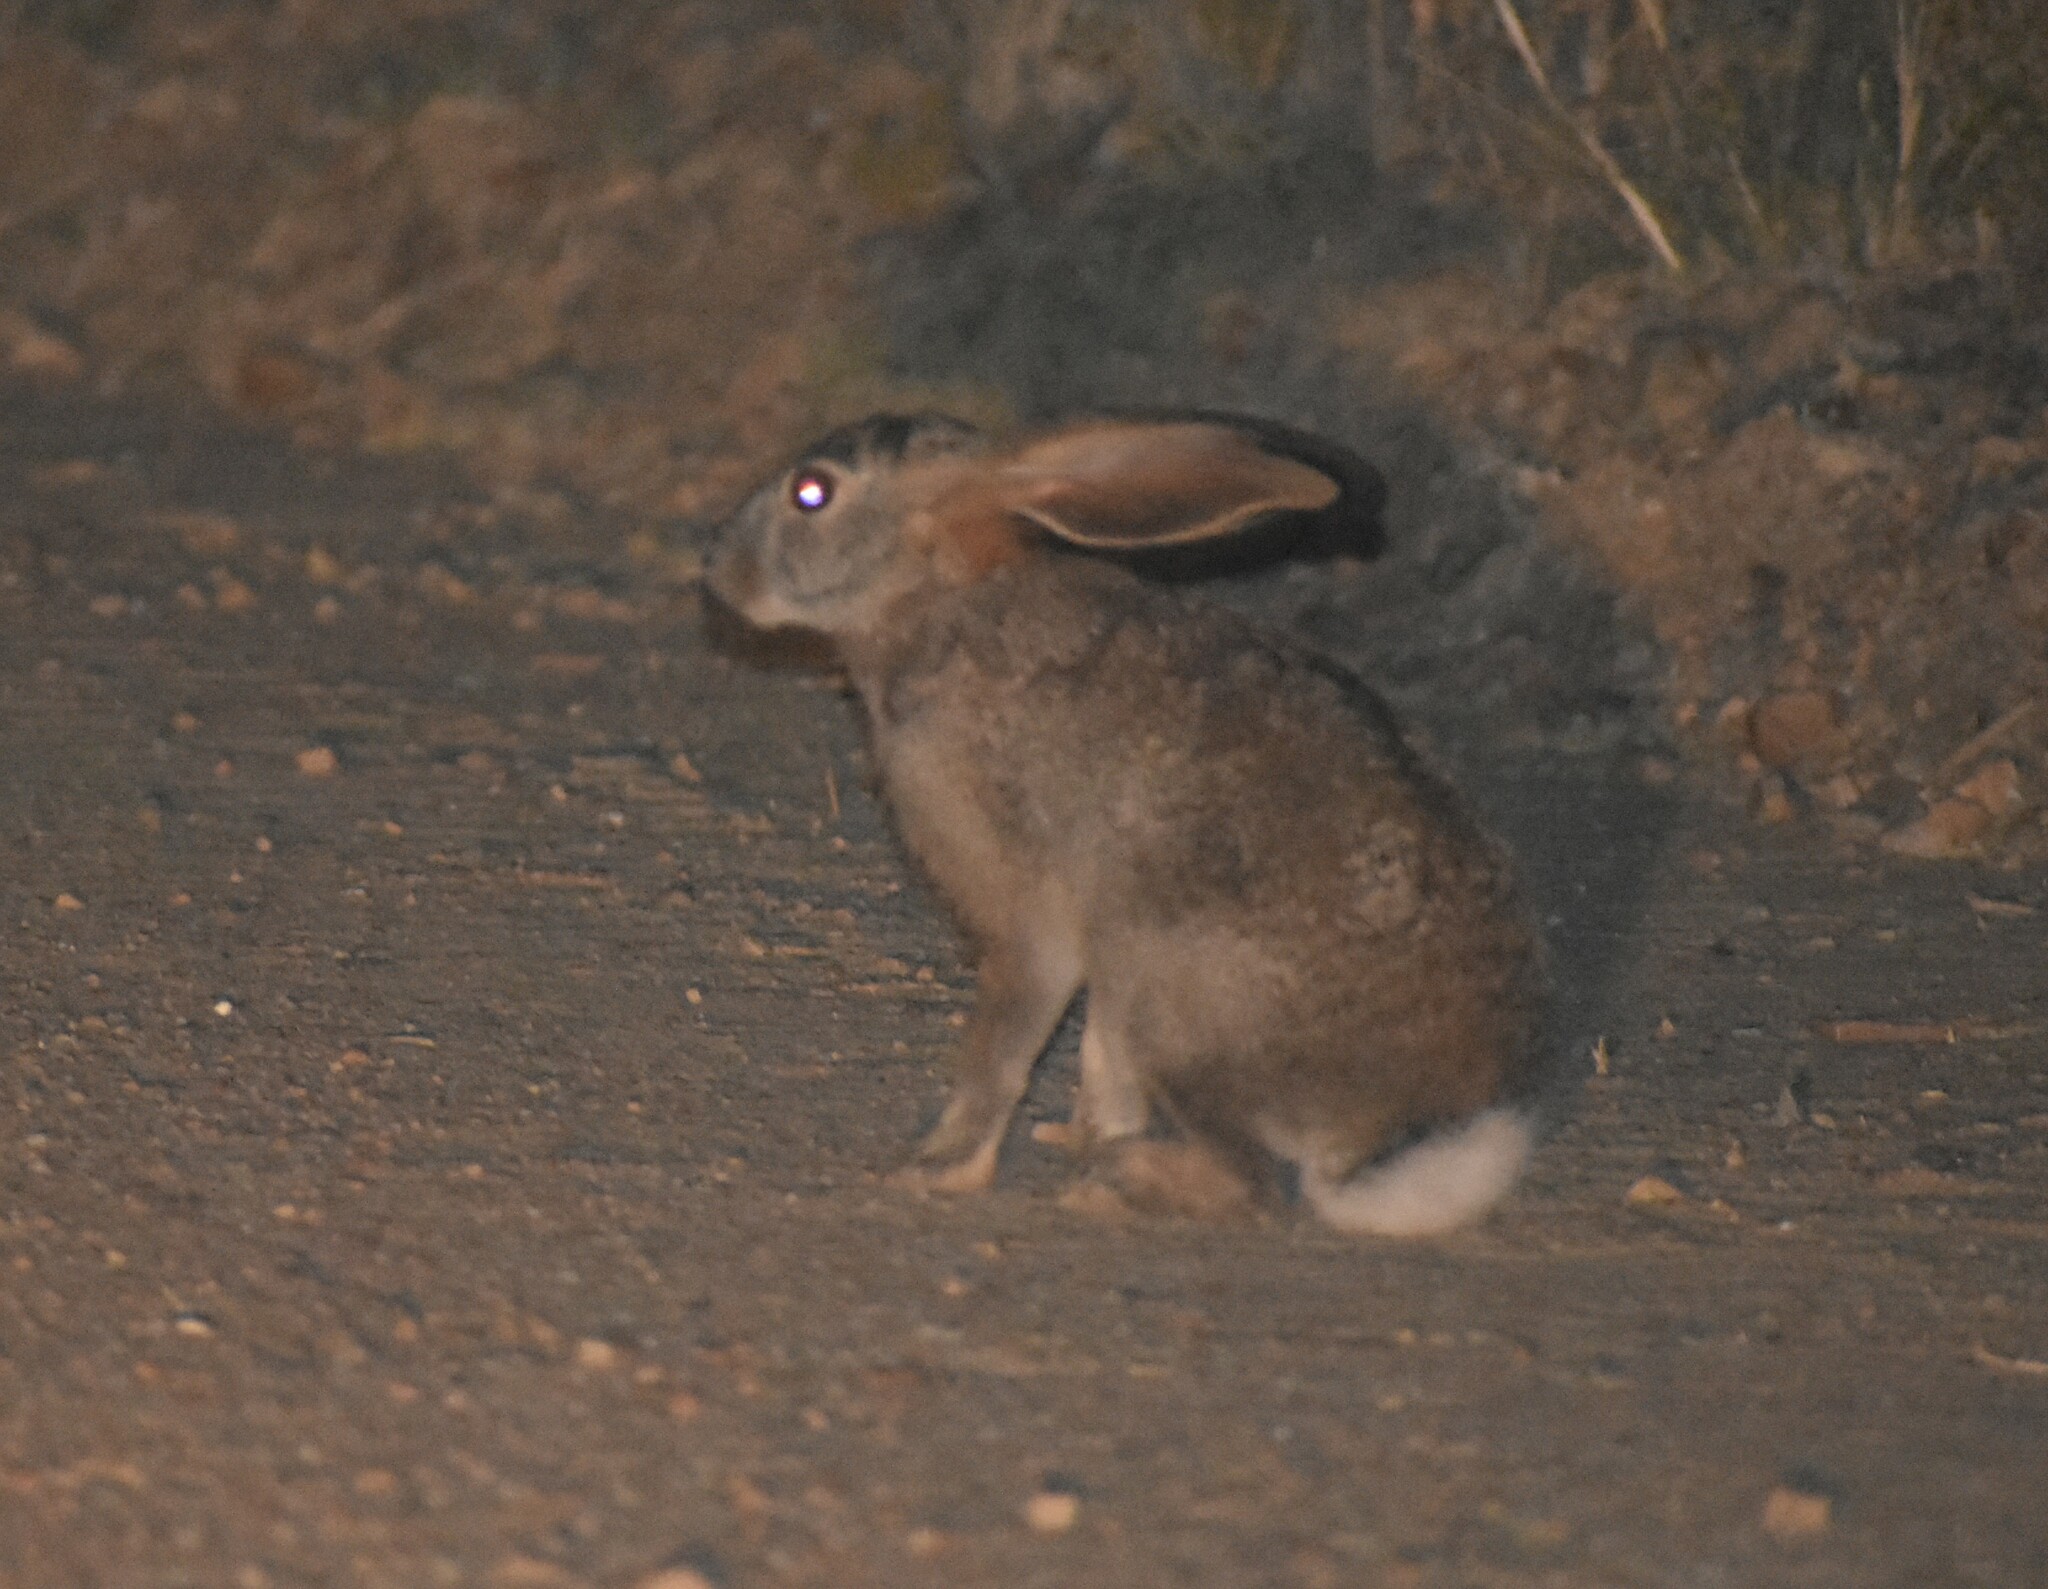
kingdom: Animalia
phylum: Chordata
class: Mammalia
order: Lagomorpha
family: Leporidae
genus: Lepus
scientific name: Lepus saxatilis
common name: Scrub hare
